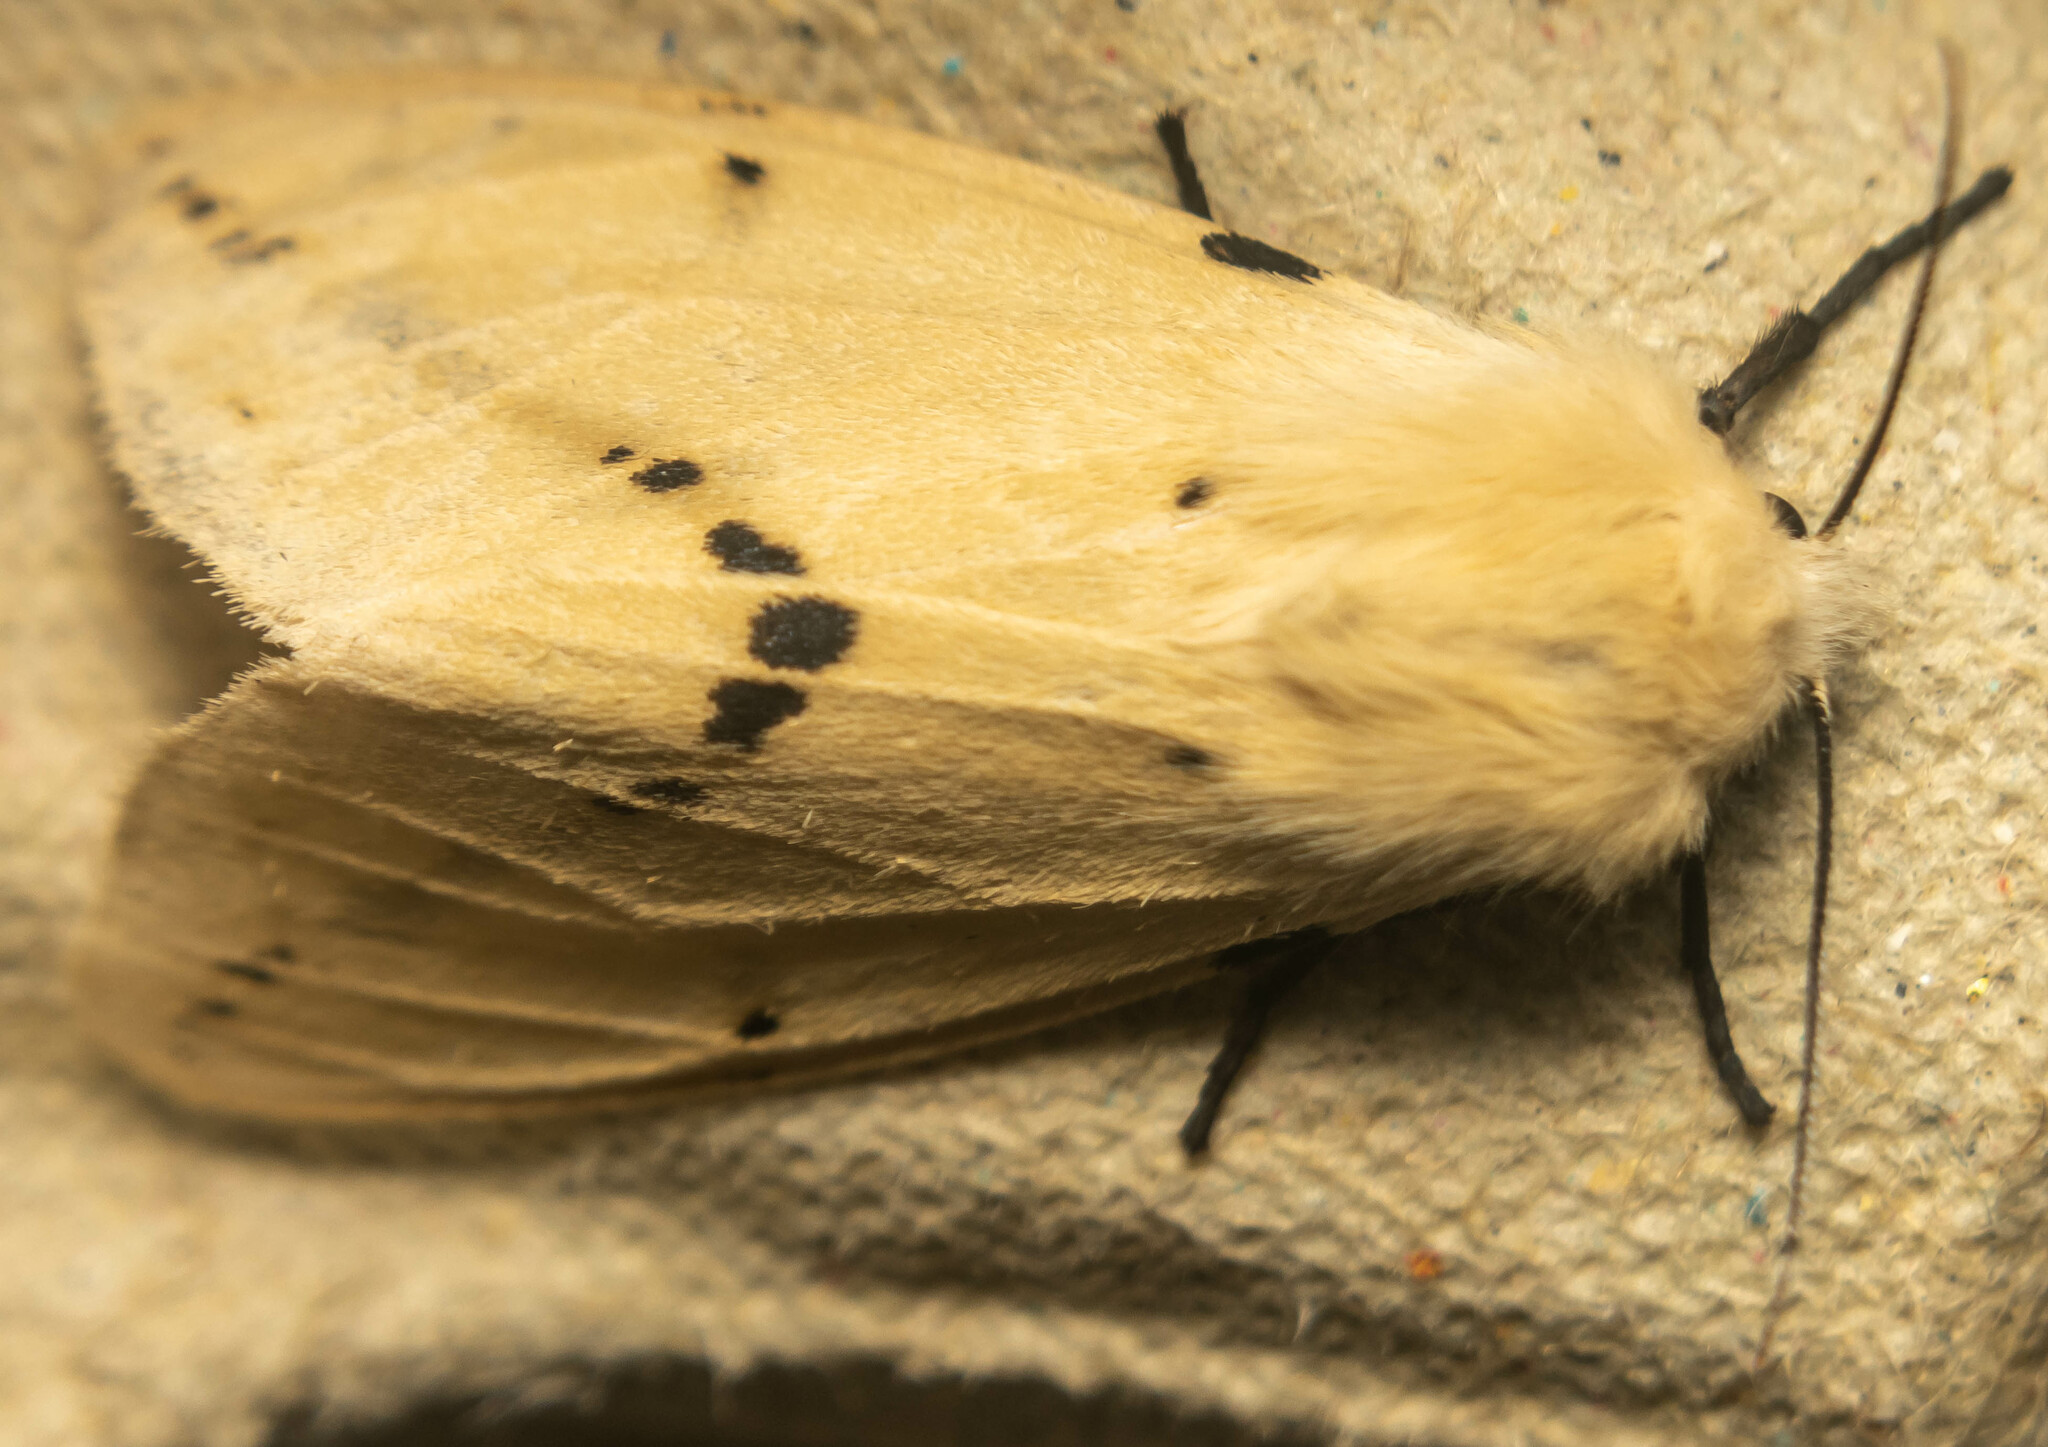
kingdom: Animalia
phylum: Arthropoda
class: Insecta
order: Lepidoptera
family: Erebidae
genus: Spilarctia
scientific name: Spilarctia lutea
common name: Buff ermine
